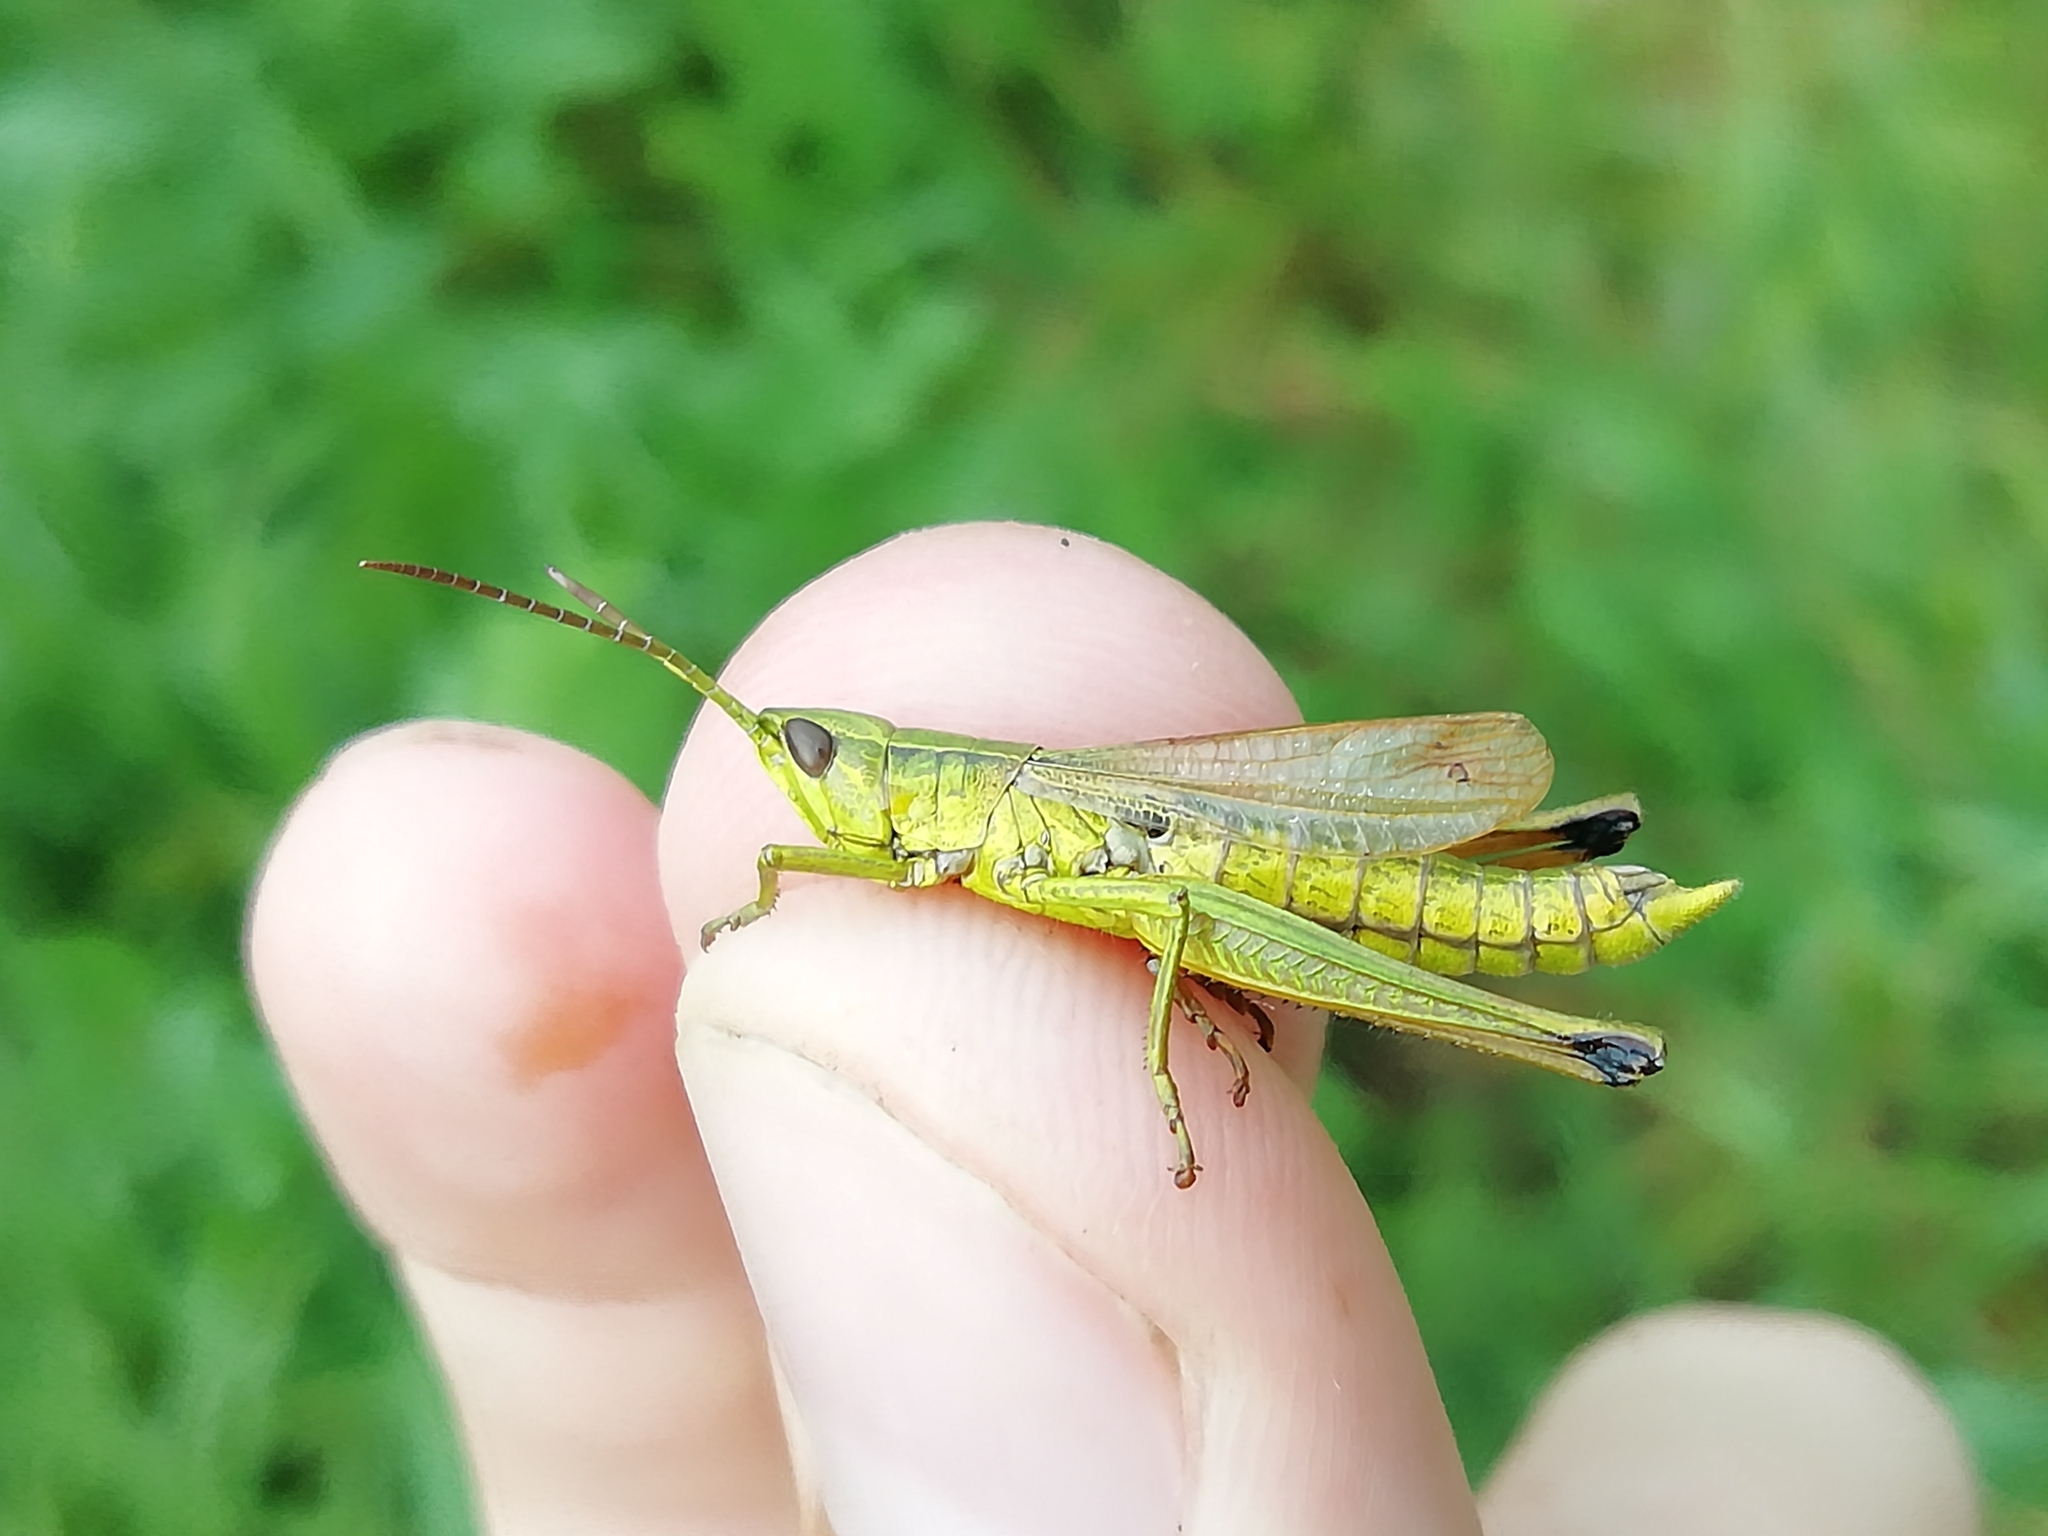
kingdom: Animalia
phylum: Arthropoda
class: Insecta
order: Orthoptera
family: Acrididae
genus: Chrysochraon
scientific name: Chrysochraon dispar
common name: Large gold grasshopper
